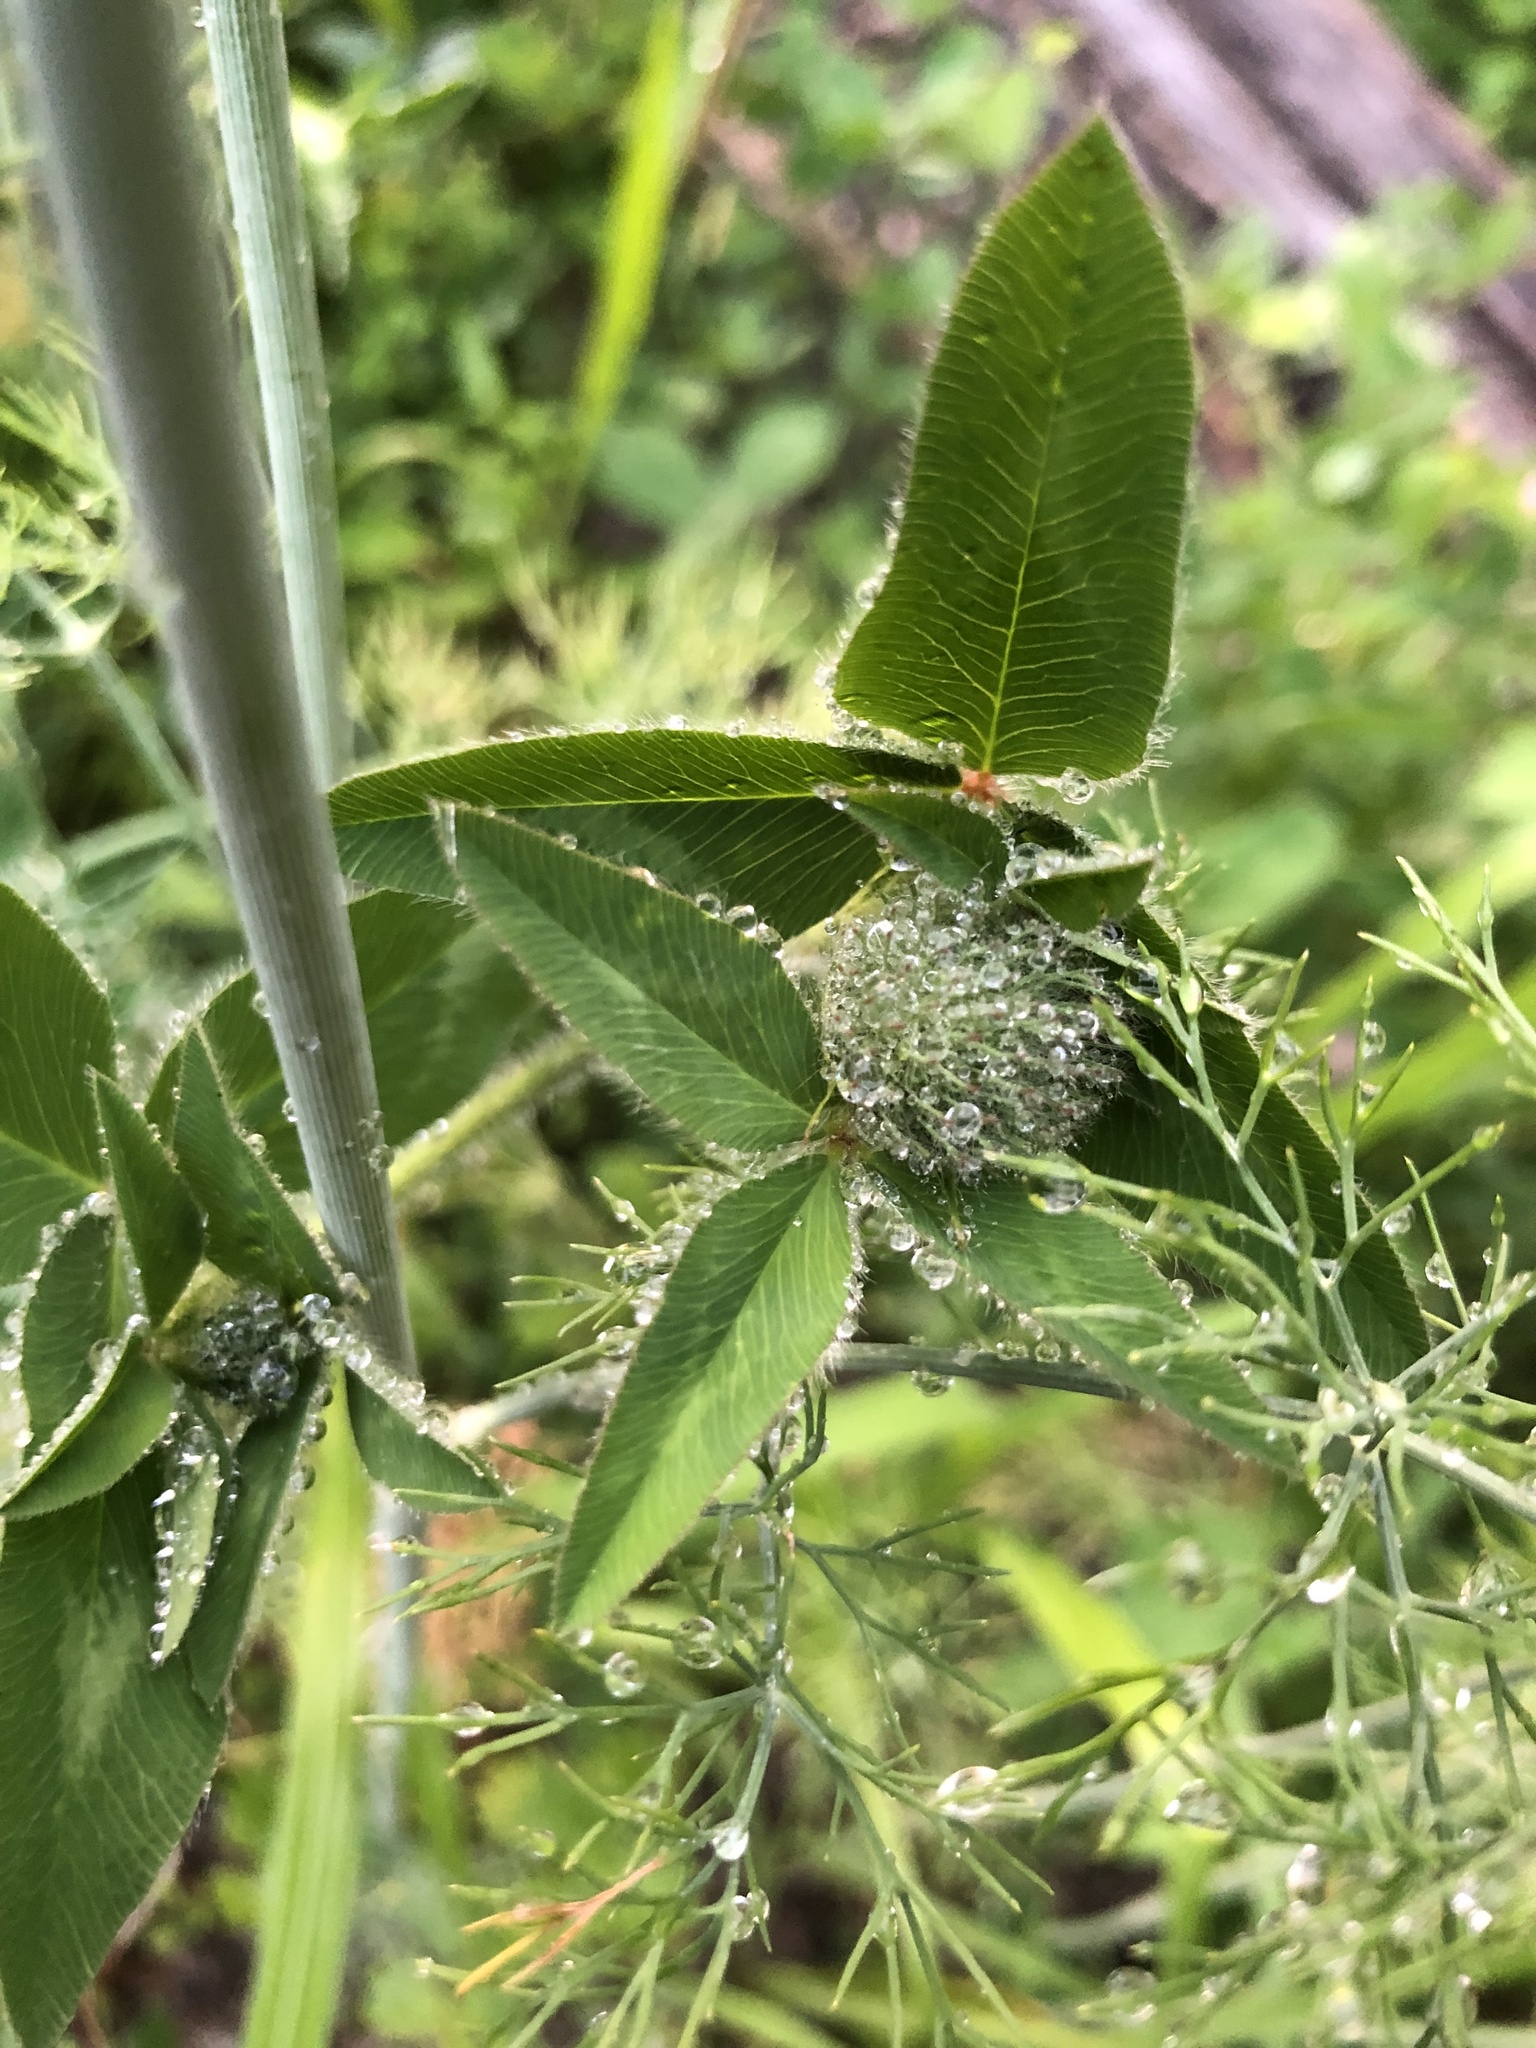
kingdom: Plantae
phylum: Tracheophyta
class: Magnoliopsida
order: Fabales
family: Fabaceae
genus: Trifolium
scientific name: Trifolium pratense
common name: Red clover
